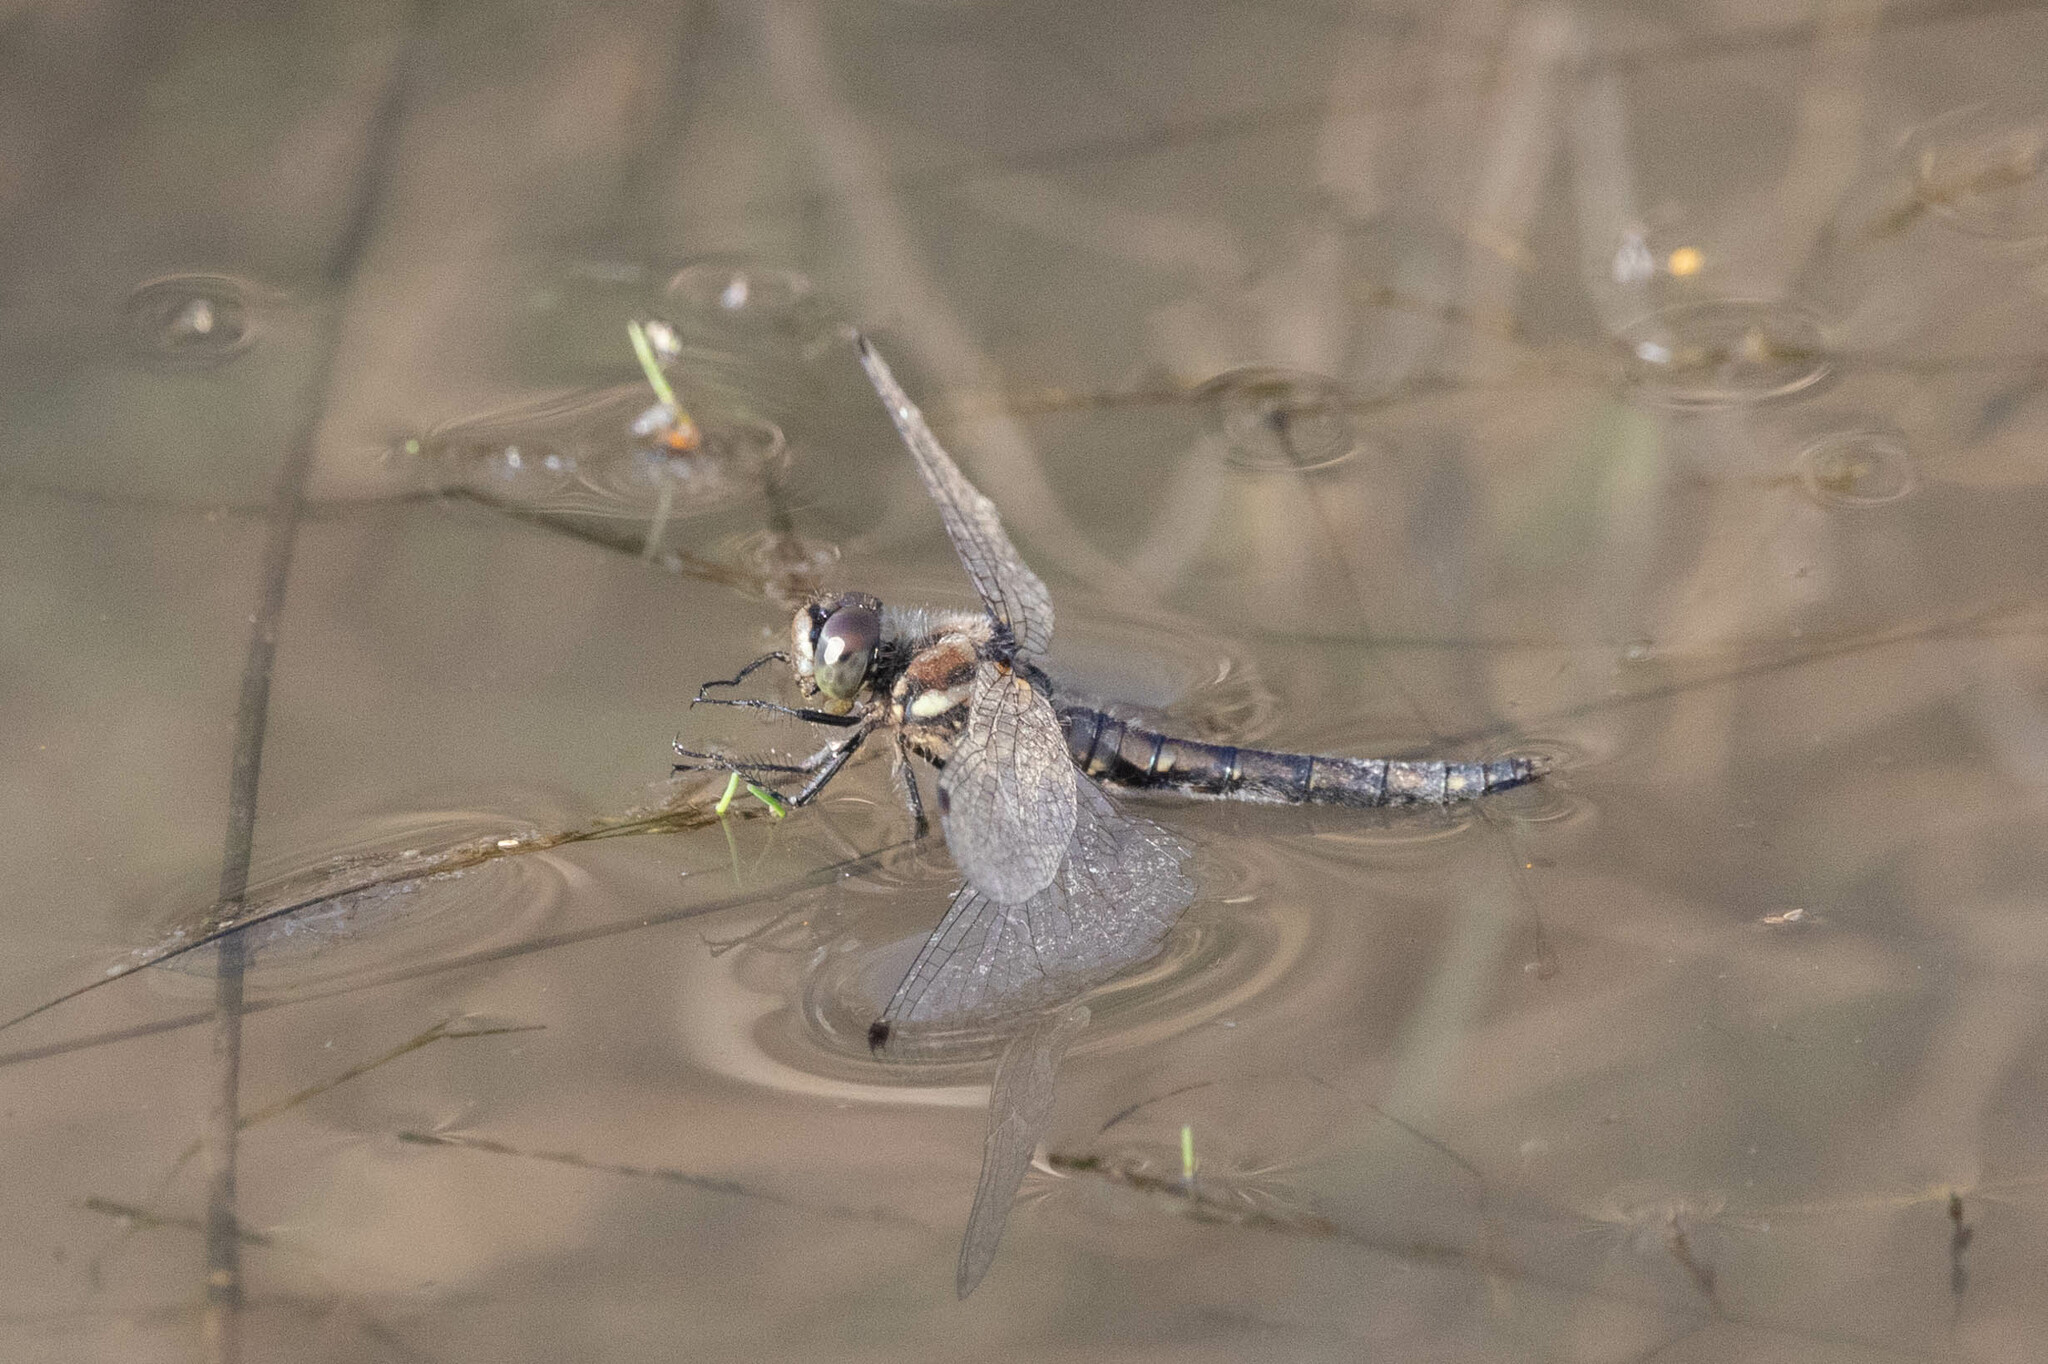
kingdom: Animalia
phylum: Arthropoda
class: Insecta
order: Odonata
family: Libellulidae
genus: Sympetrum
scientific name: Sympetrum danae
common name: Black darter
